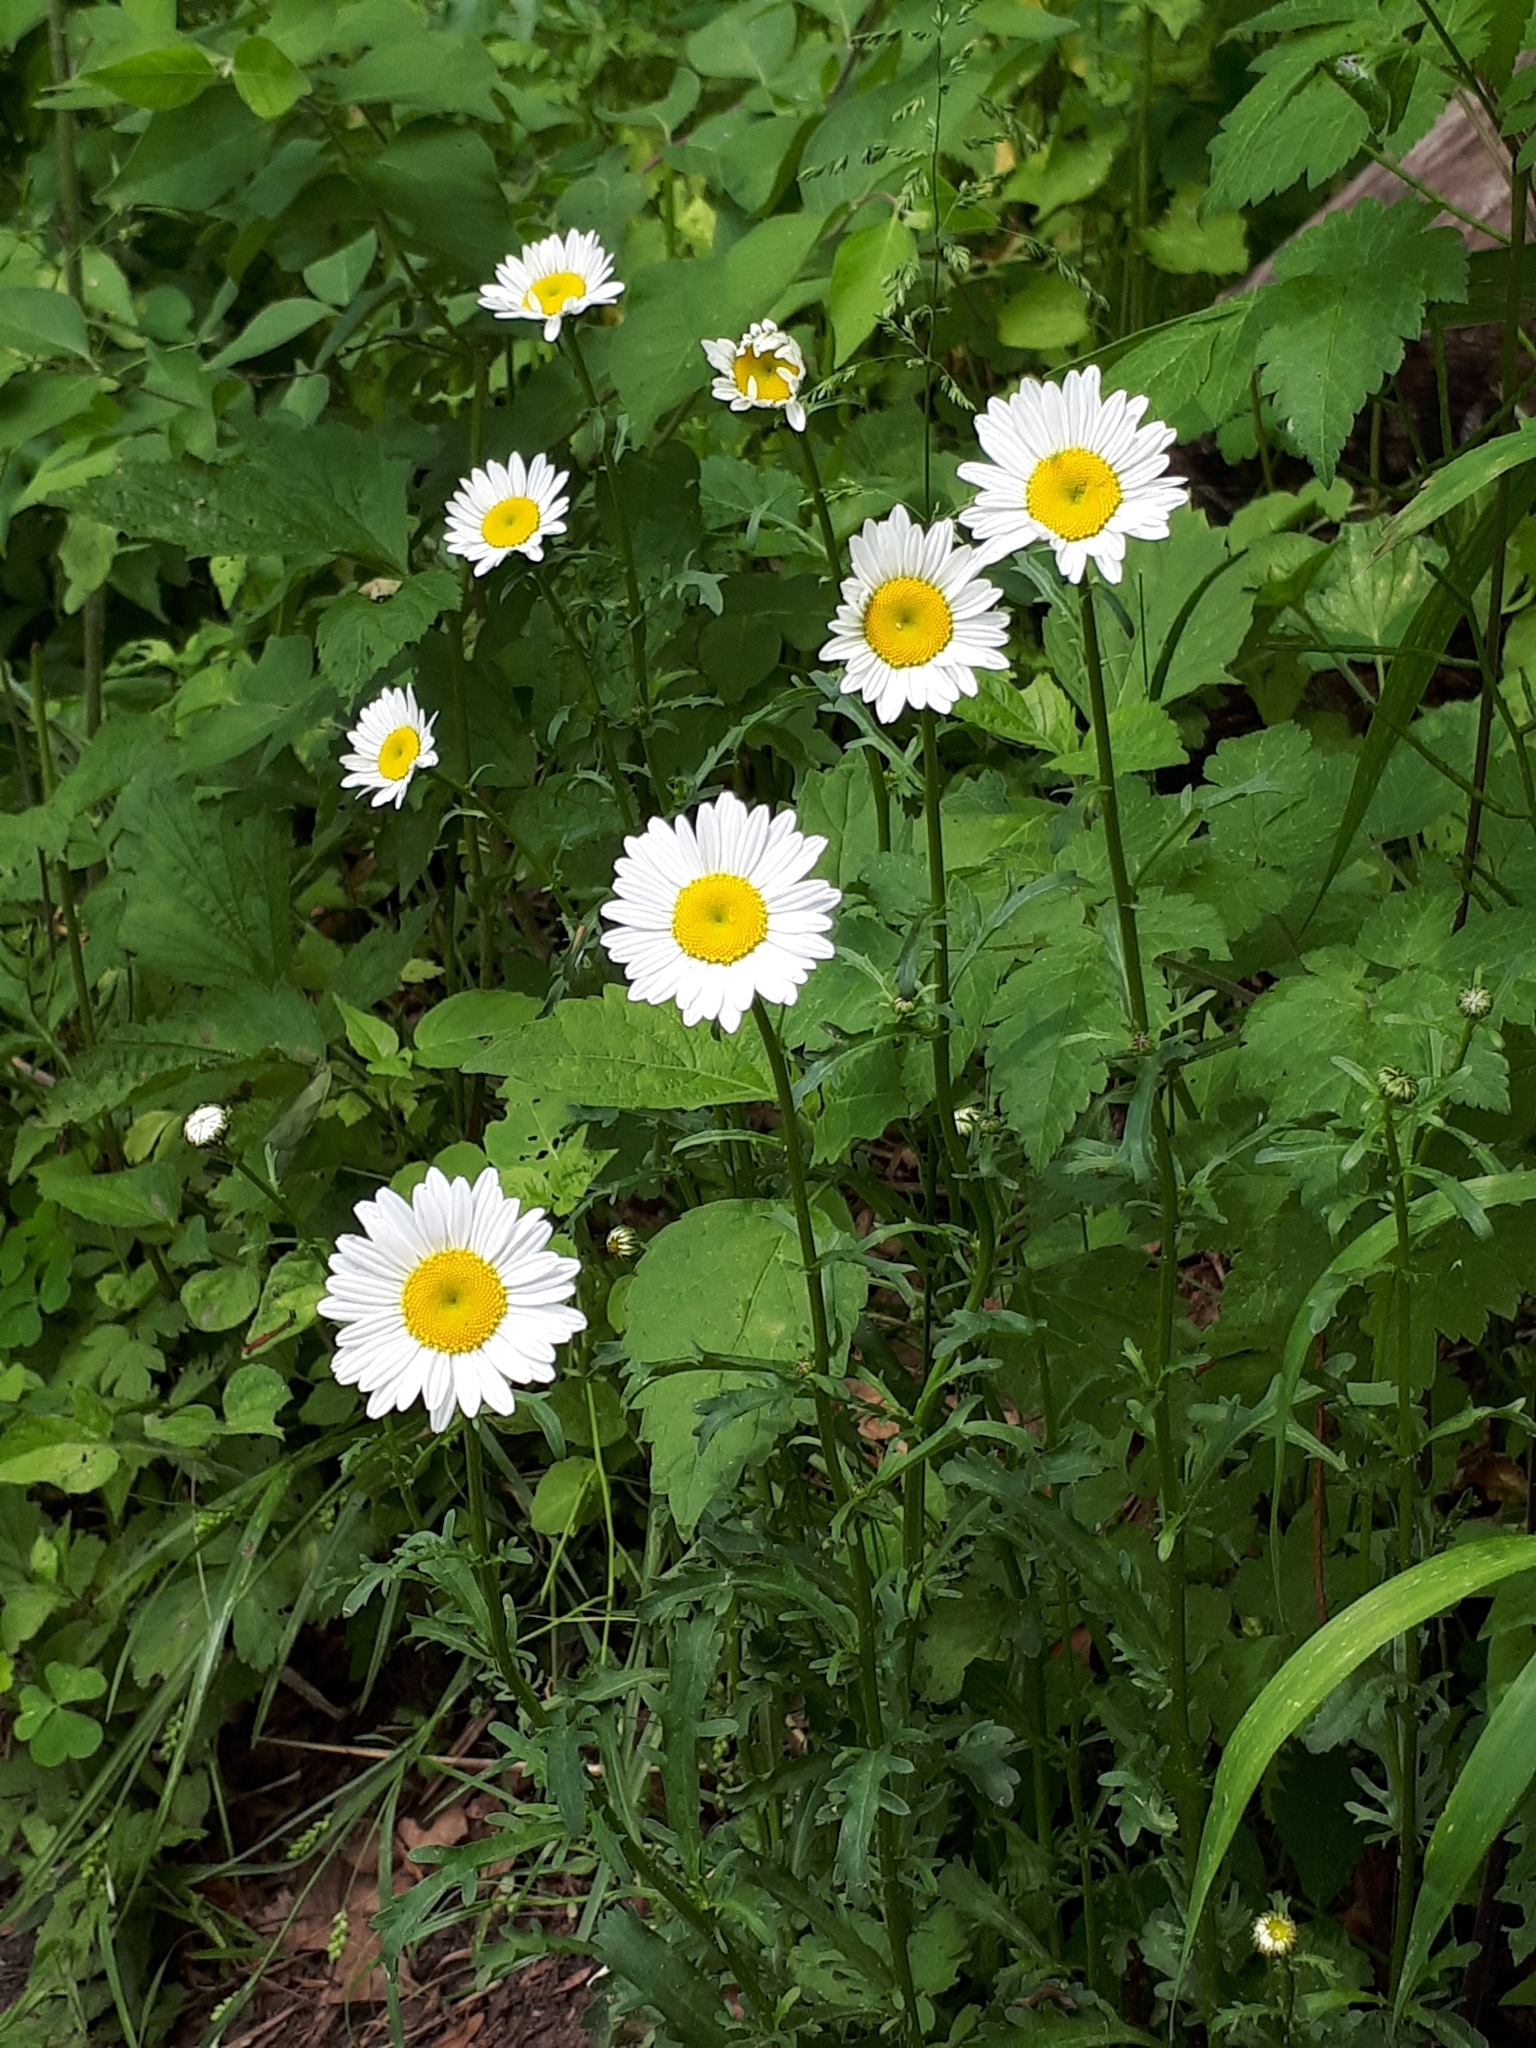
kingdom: Plantae
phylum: Tracheophyta
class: Magnoliopsida
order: Asterales
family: Asteraceae
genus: Leucanthemum
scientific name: Leucanthemum vulgare
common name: Oxeye daisy
